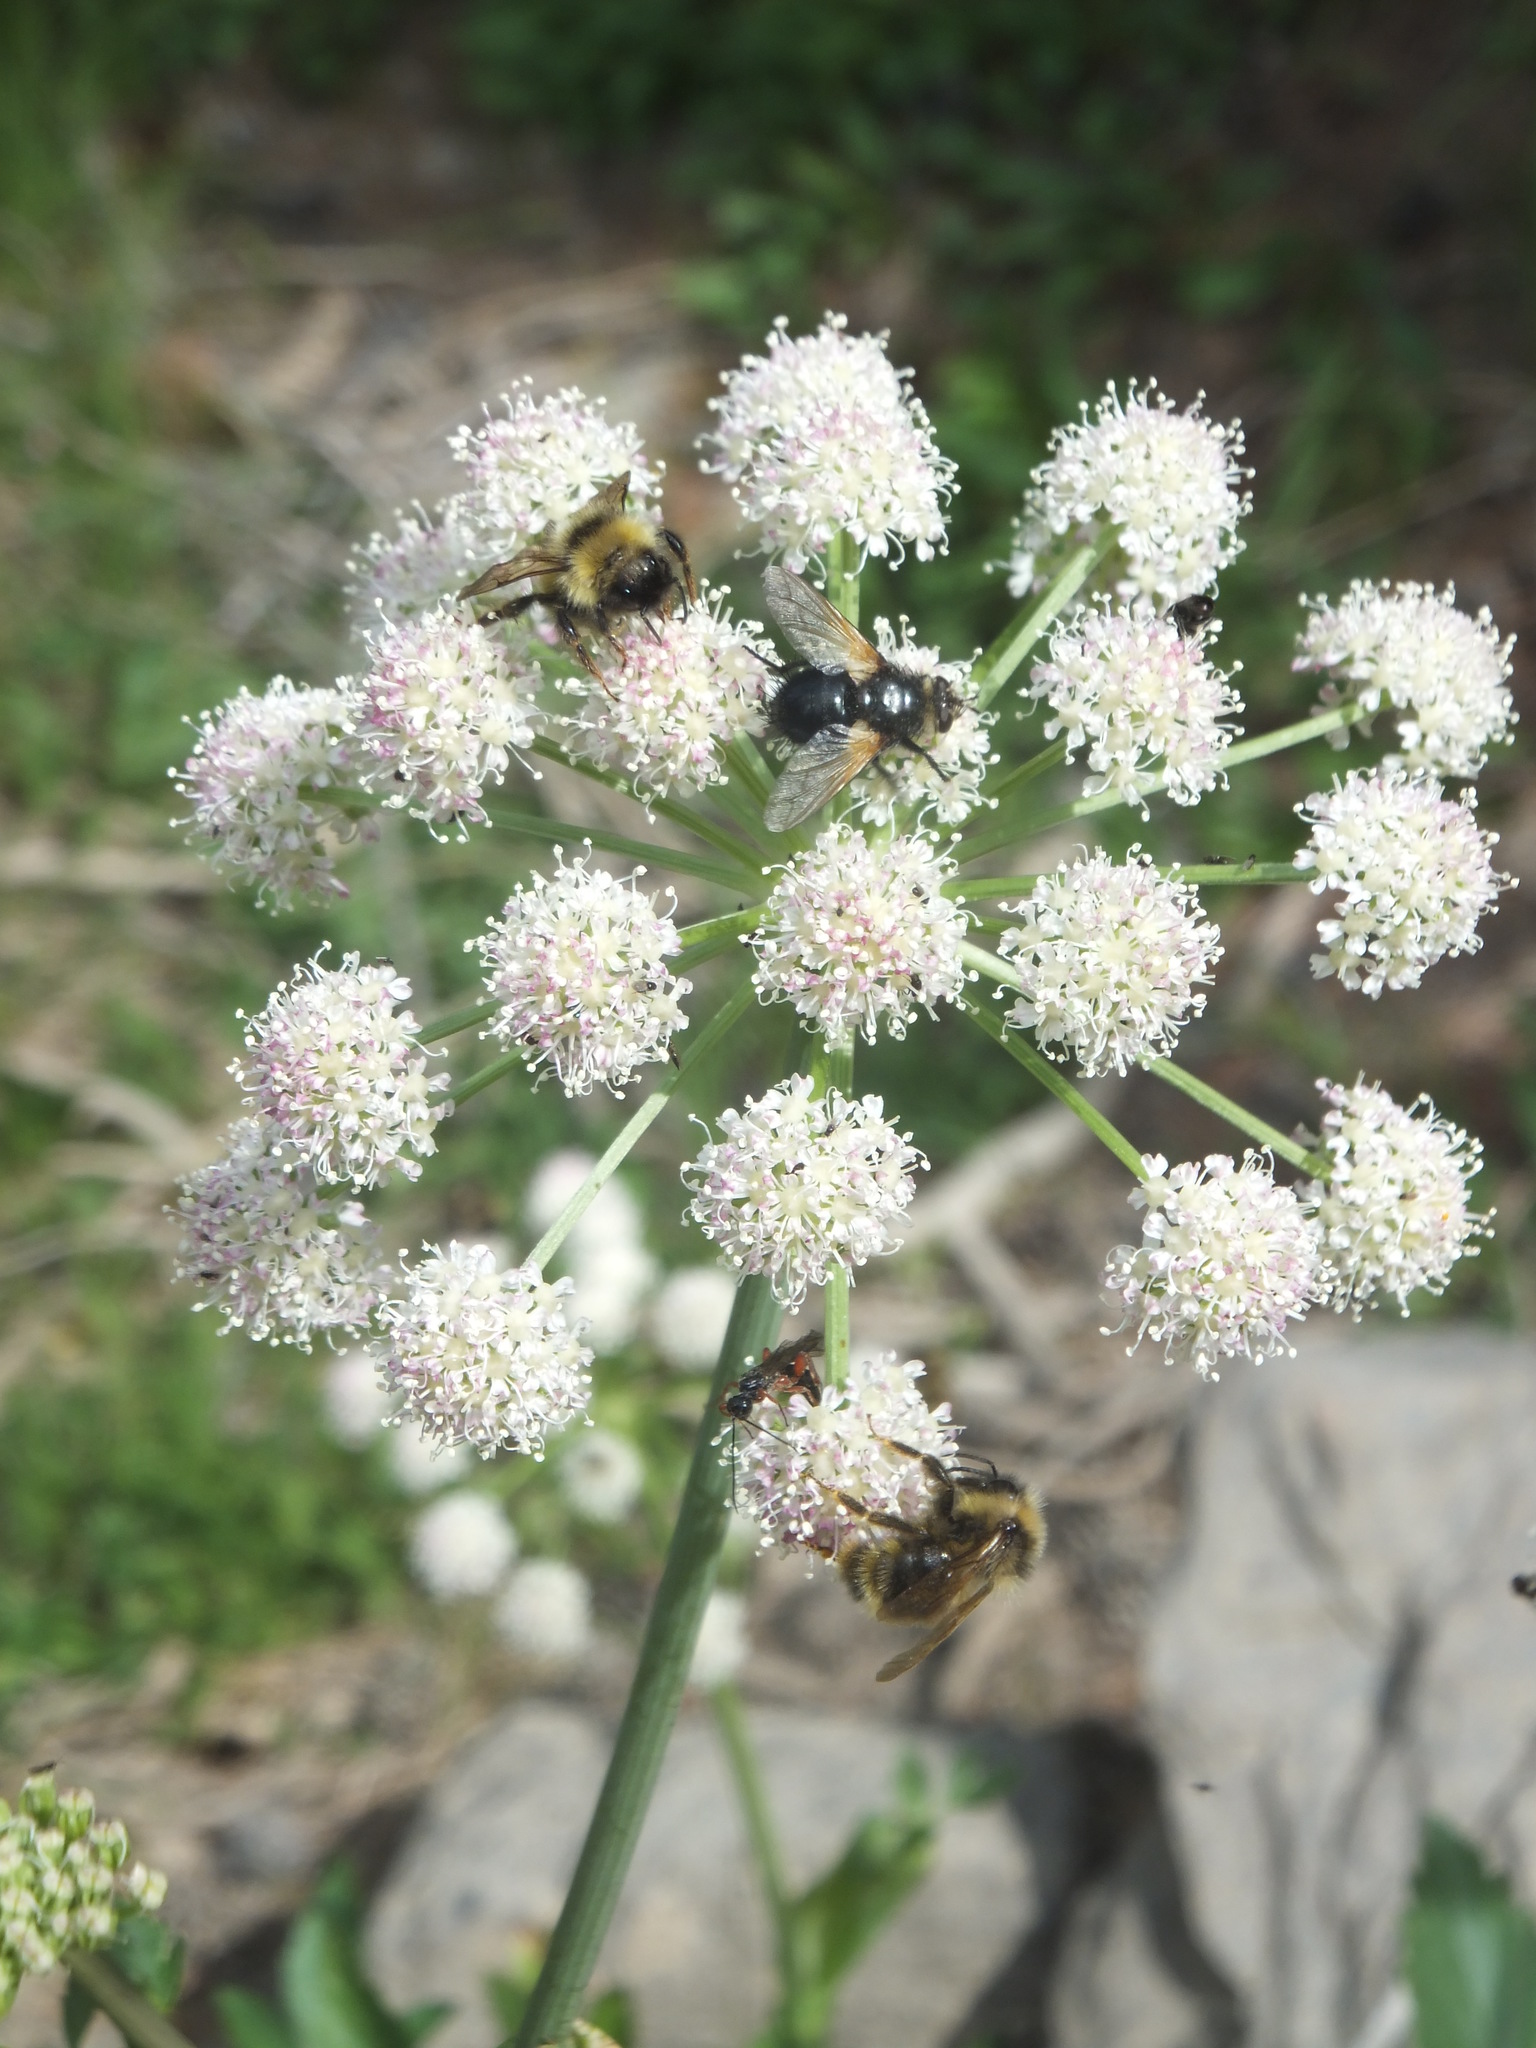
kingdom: Plantae
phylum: Tracheophyta
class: Magnoliopsida
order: Apiales
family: Apiaceae
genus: Angelica
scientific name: Angelica arguta
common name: Lyall's angelica
